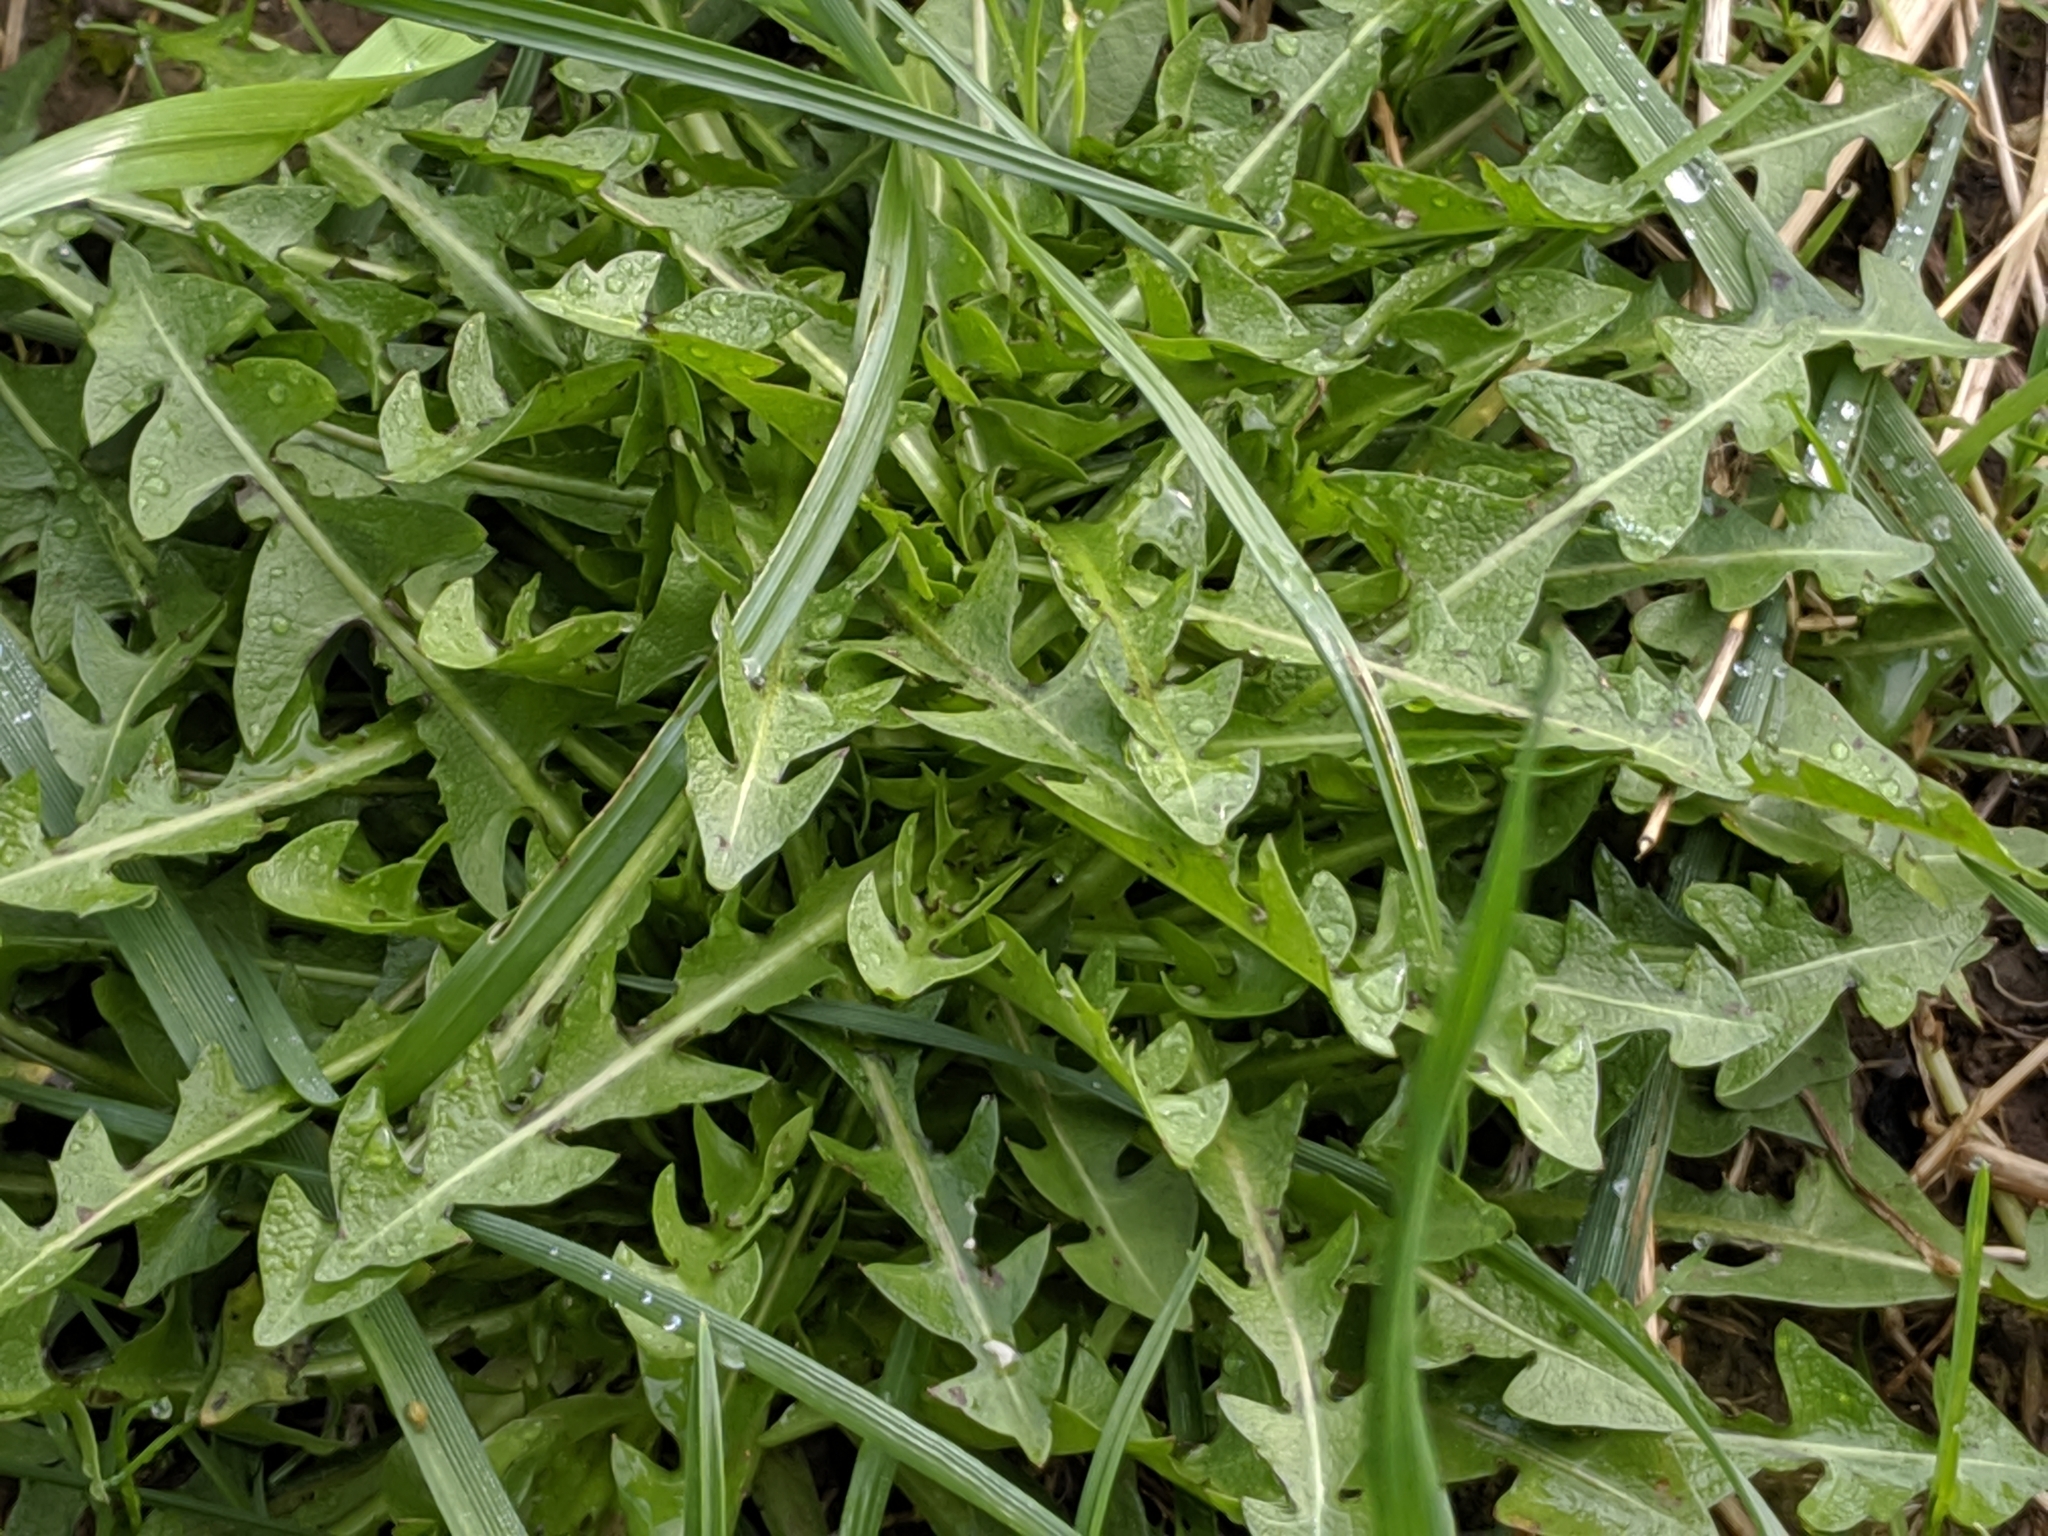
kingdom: Plantae
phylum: Tracheophyta
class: Magnoliopsida
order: Asterales
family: Asteraceae
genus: Taraxacum
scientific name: Taraxacum officinale
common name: Common dandelion
